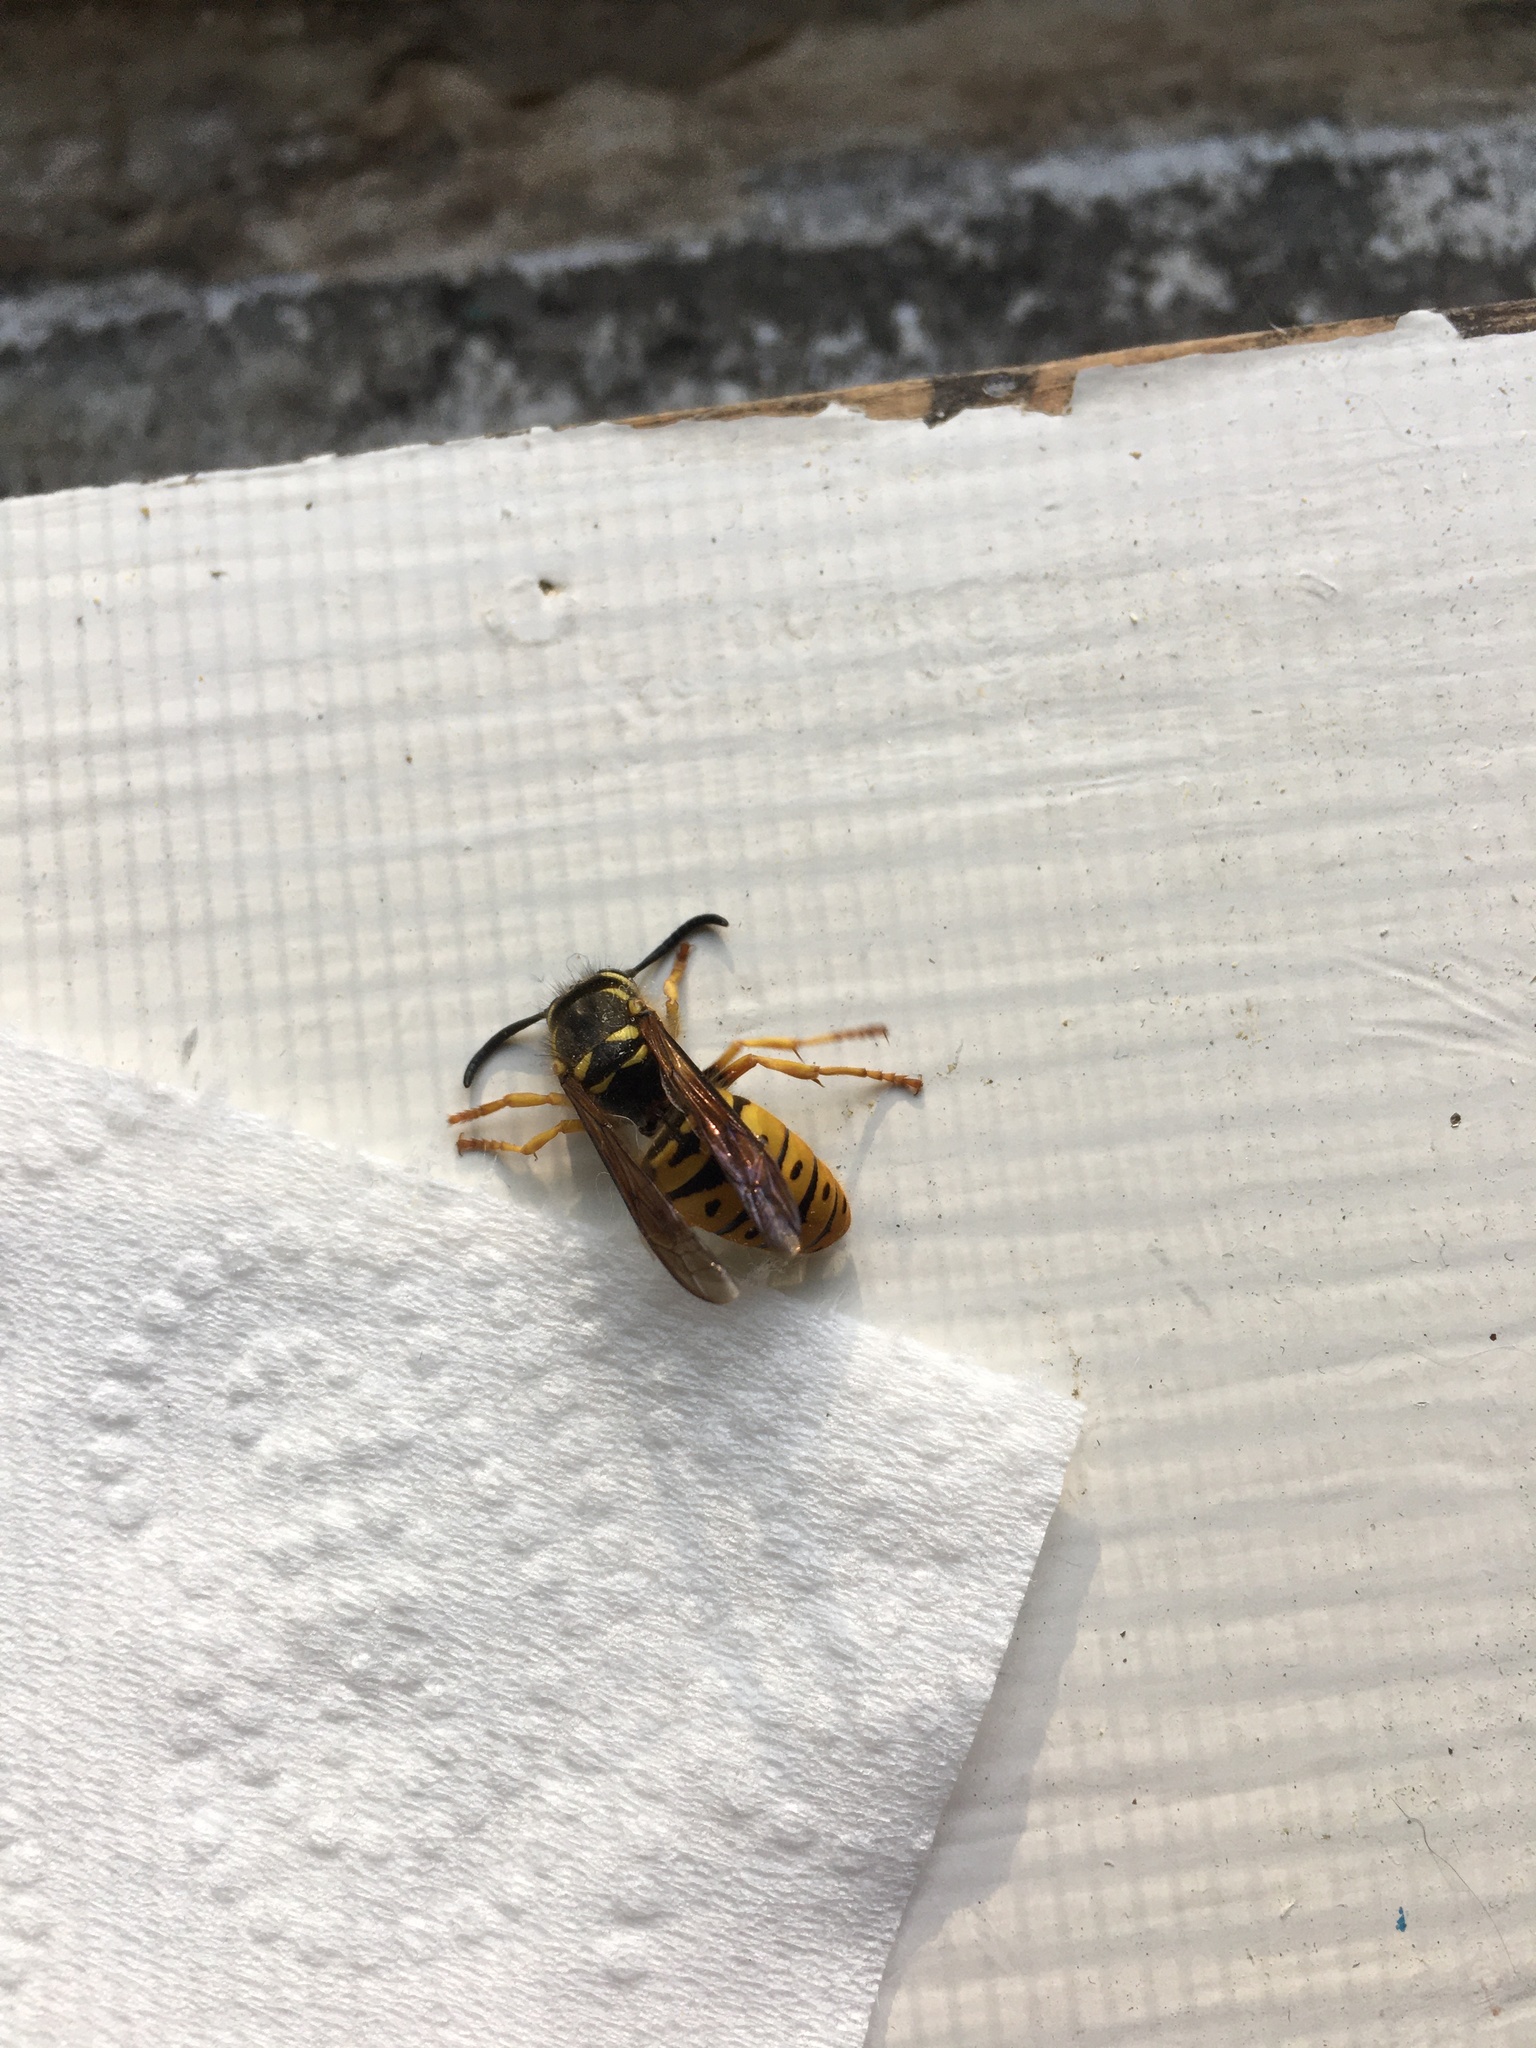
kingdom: Animalia
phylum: Arthropoda
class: Insecta
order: Hymenoptera
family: Vespidae
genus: Vespula
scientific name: Vespula maculifrons
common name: Eastern yellowjacket
